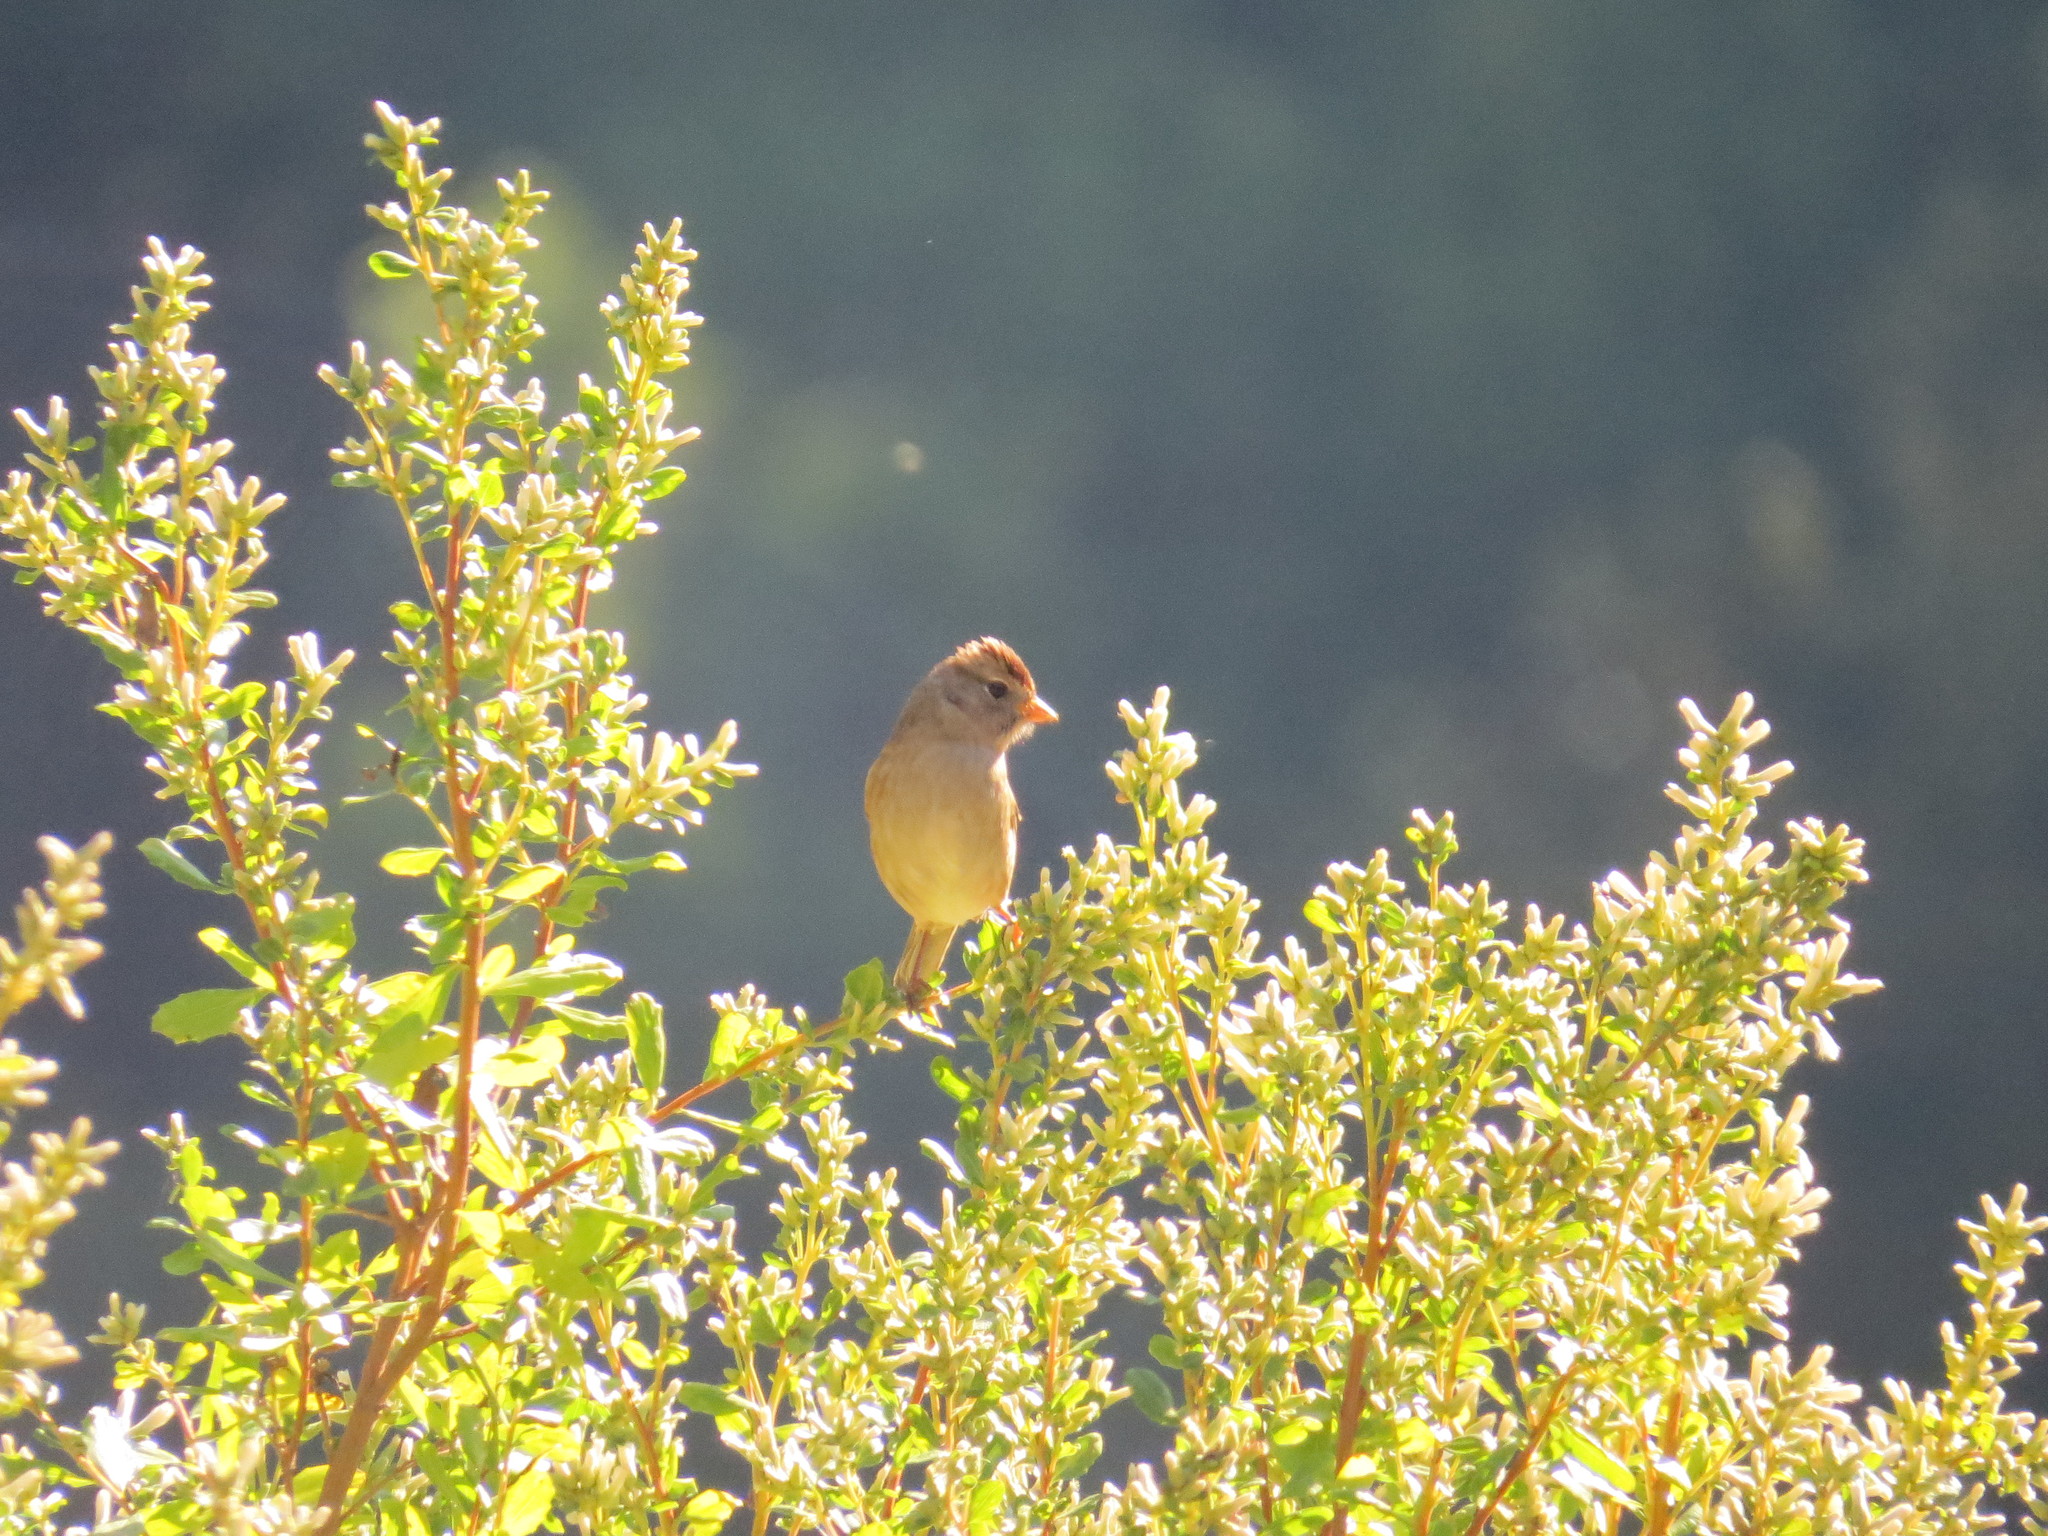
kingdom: Animalia
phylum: Chordata
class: Aves
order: Passeriformes
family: Passerellidae
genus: Zonotrichia
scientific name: Zonotrichia leucophrys
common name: White-crowned sparrow
